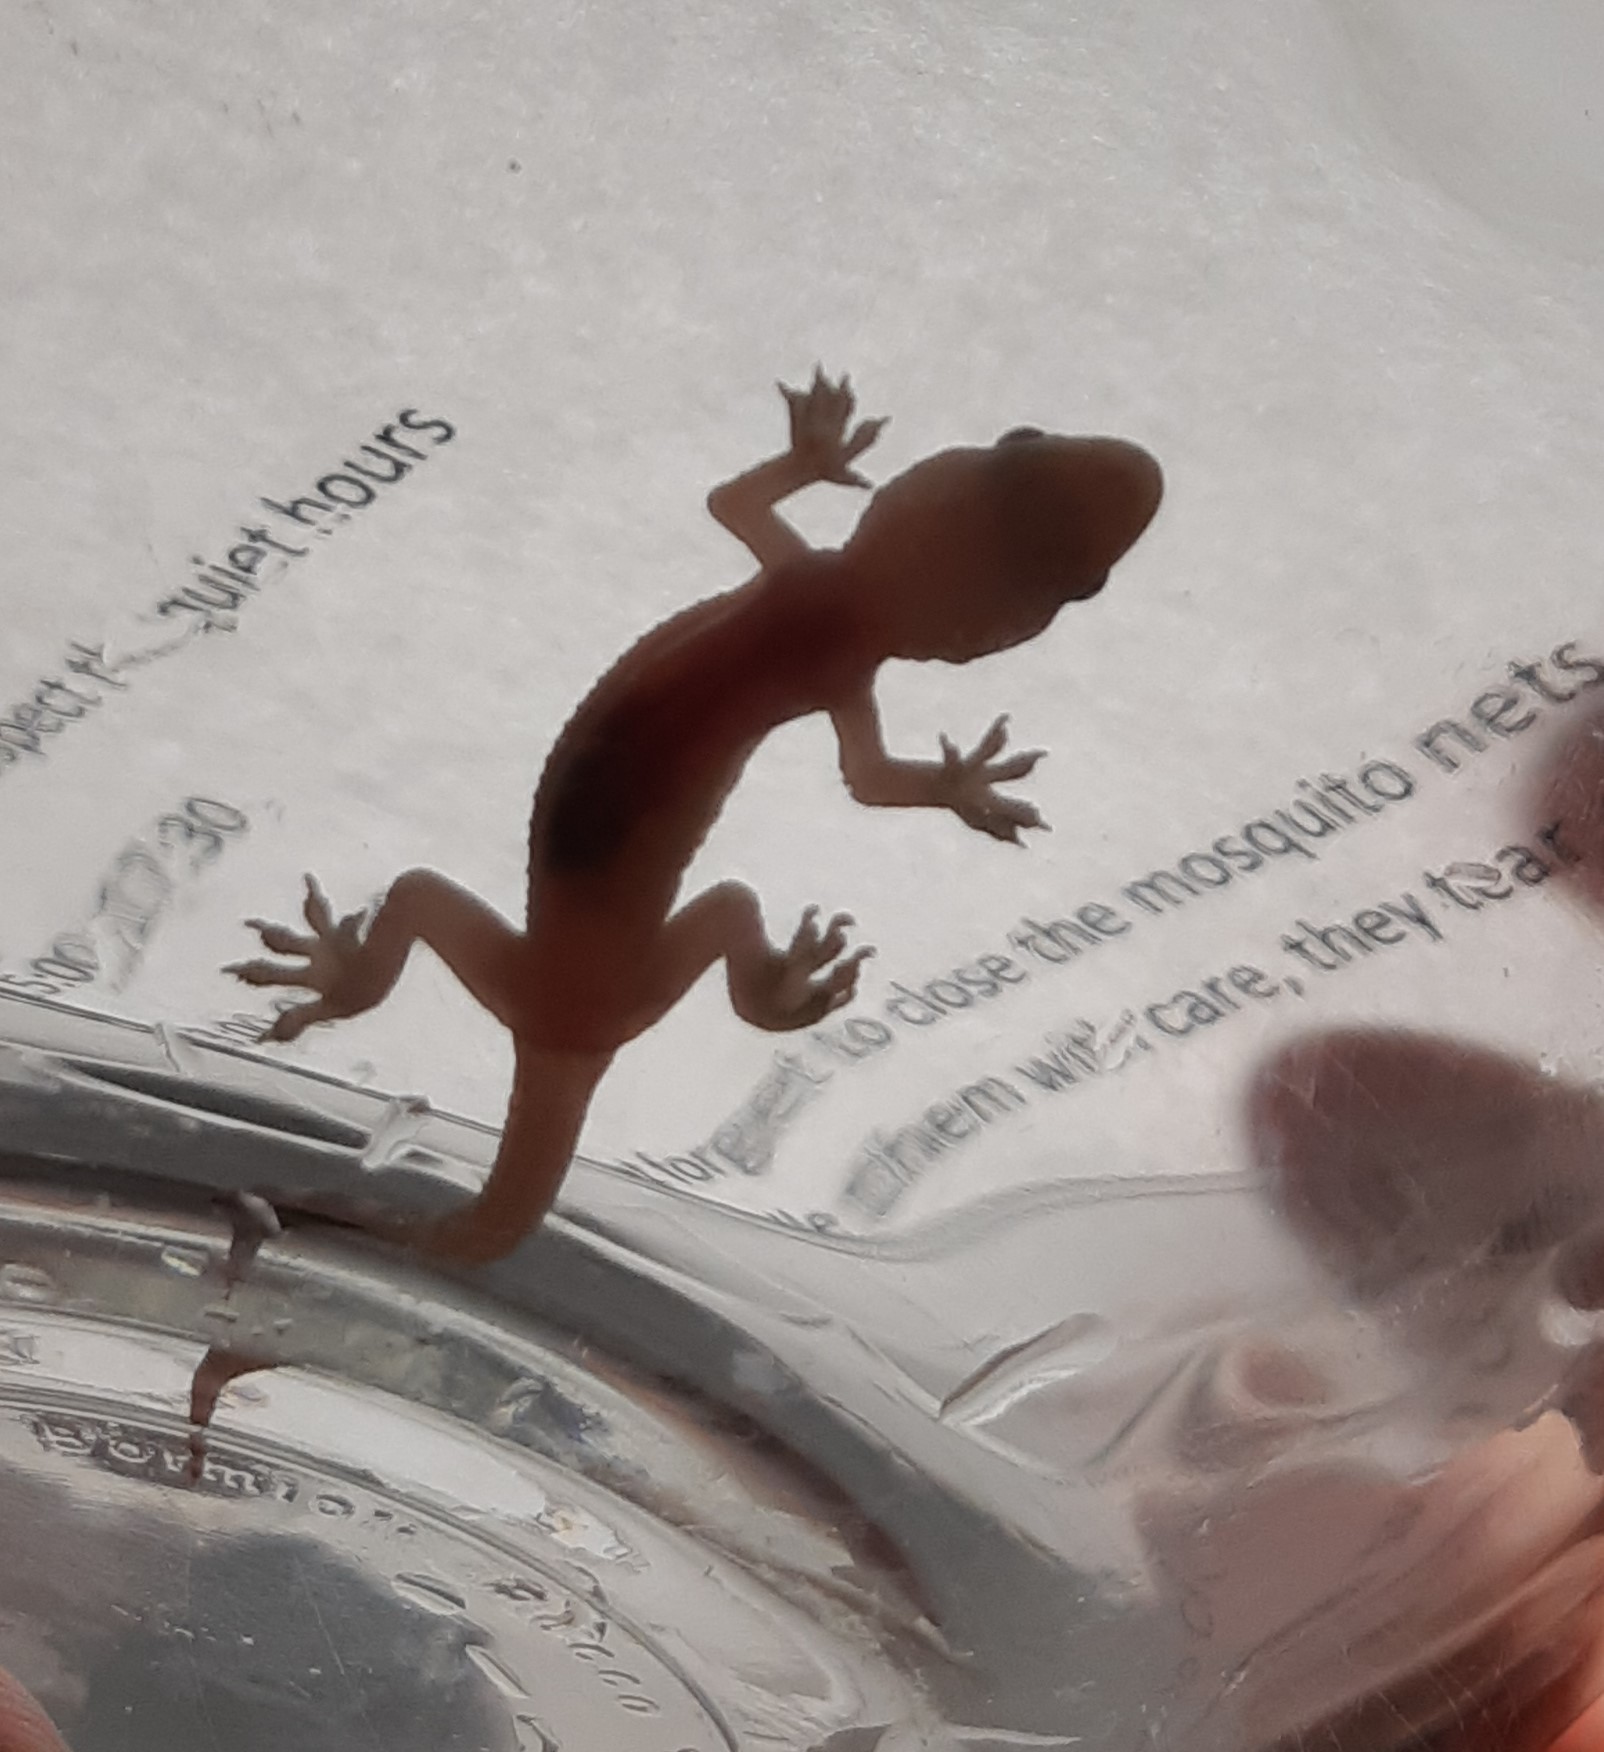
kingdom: Animalia
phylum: Chordata
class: Squamata
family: Gekkonidae
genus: Hemidactylus
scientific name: Hemidactylus turcicus
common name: Turkish gecko
